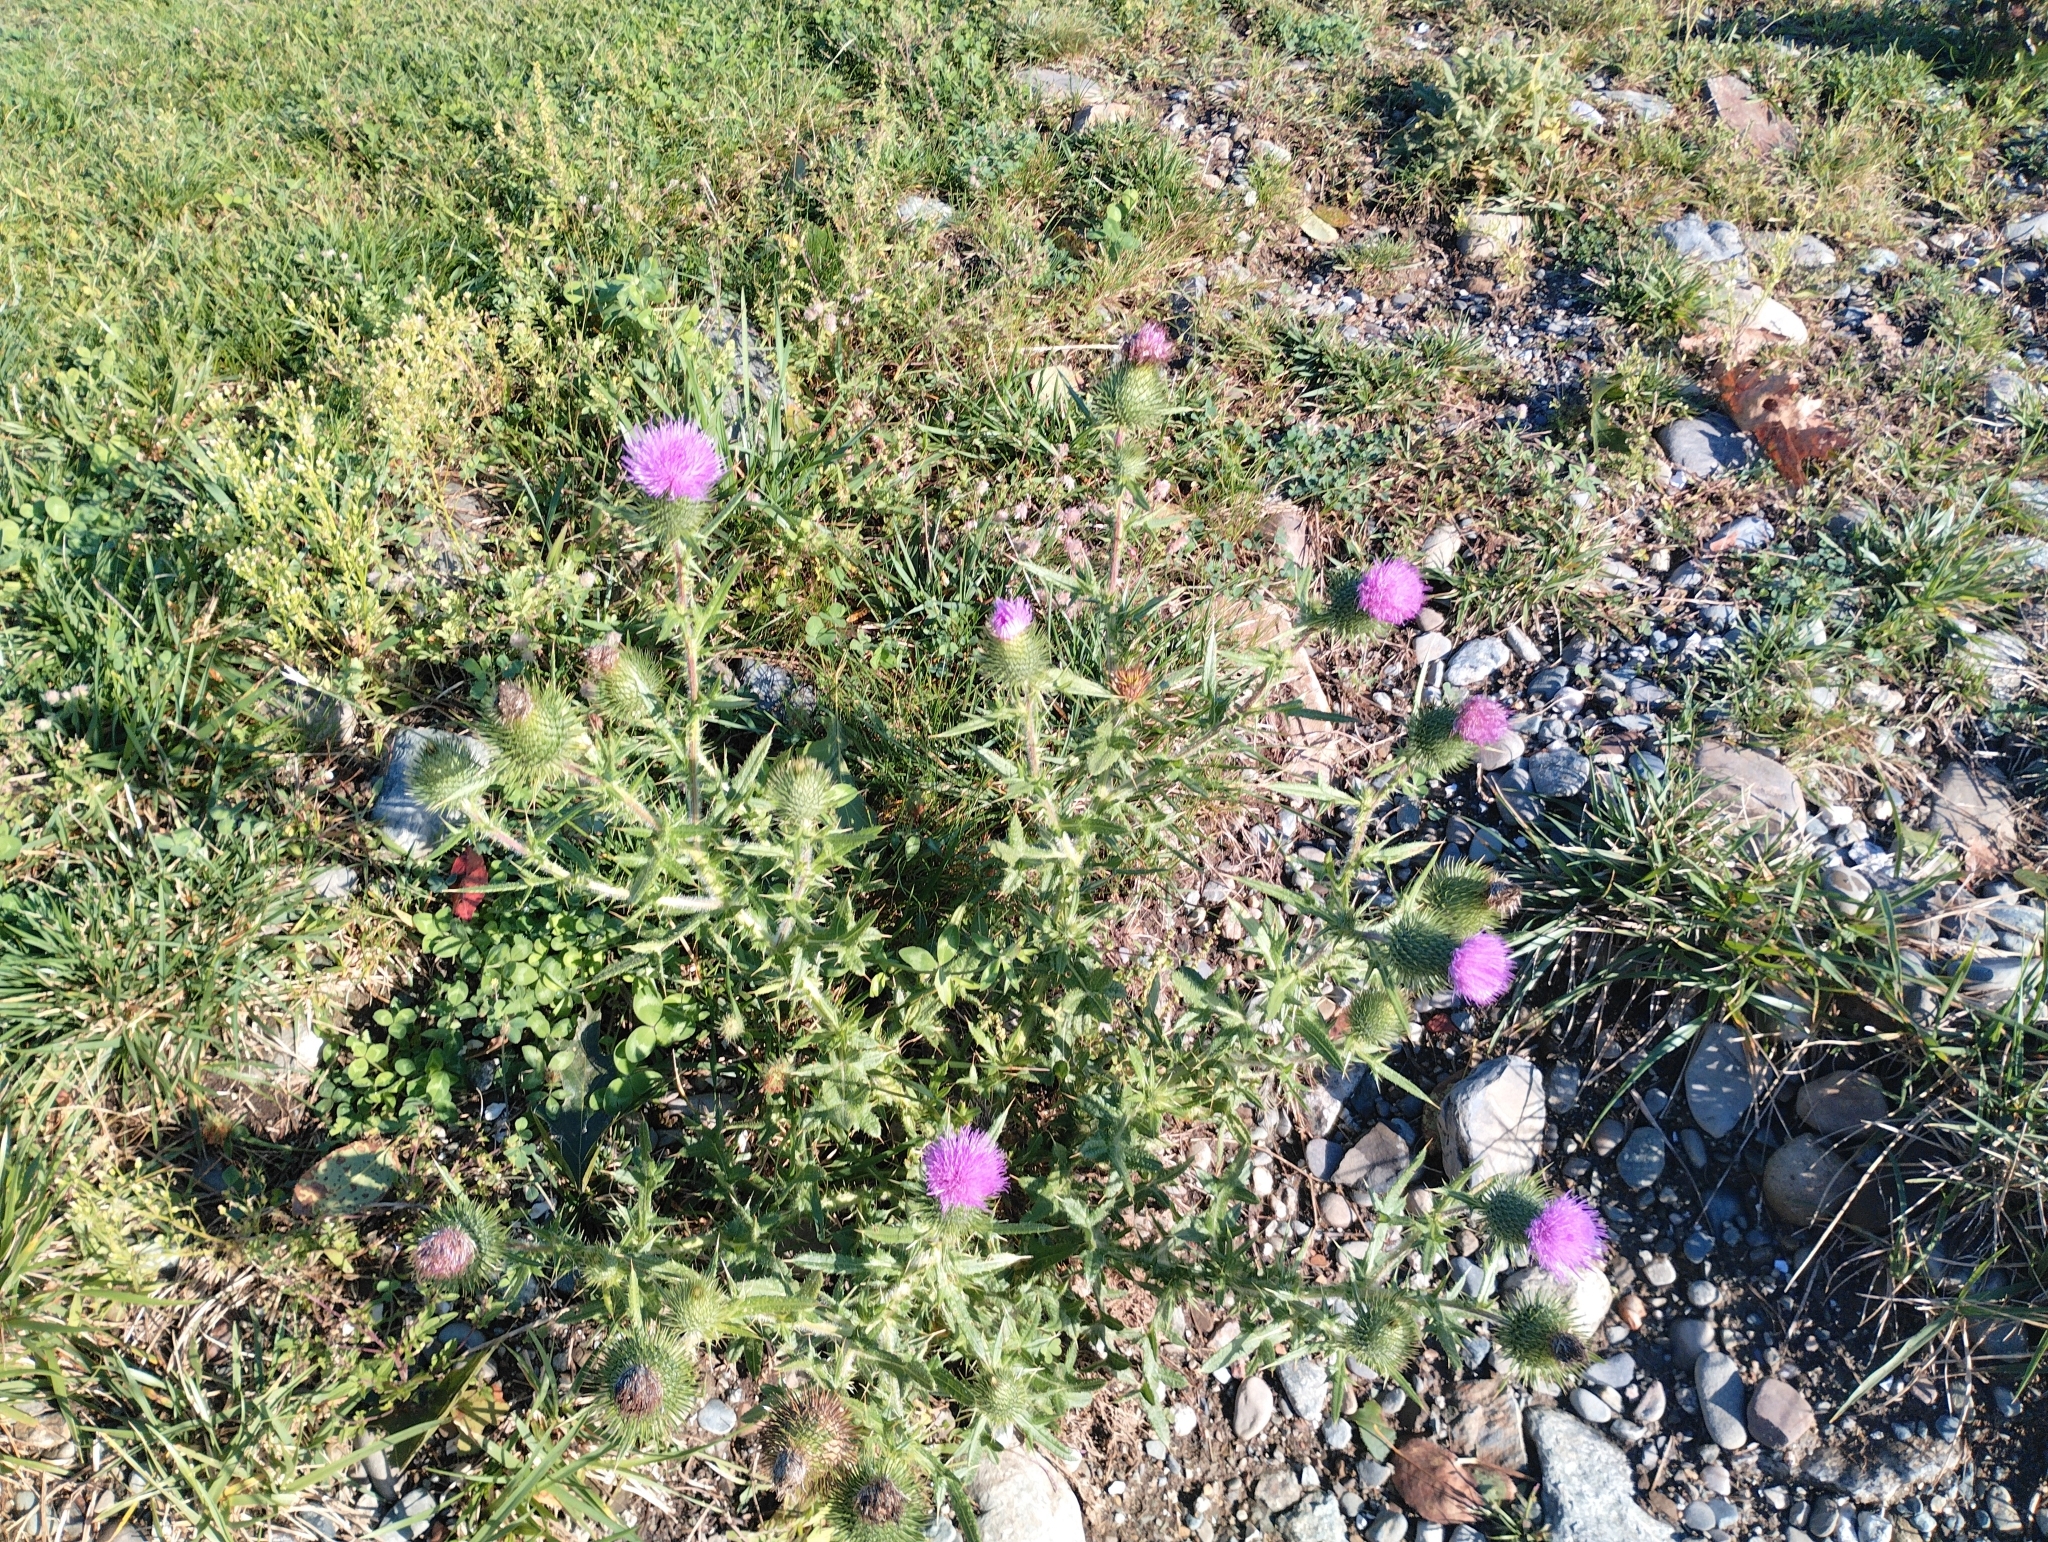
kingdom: Plantae
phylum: Tracheophyta
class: Magnoliopsida
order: Asterales
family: Asteraceae
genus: Cirsium
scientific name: Cirsium vulgare
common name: Bull thistle
